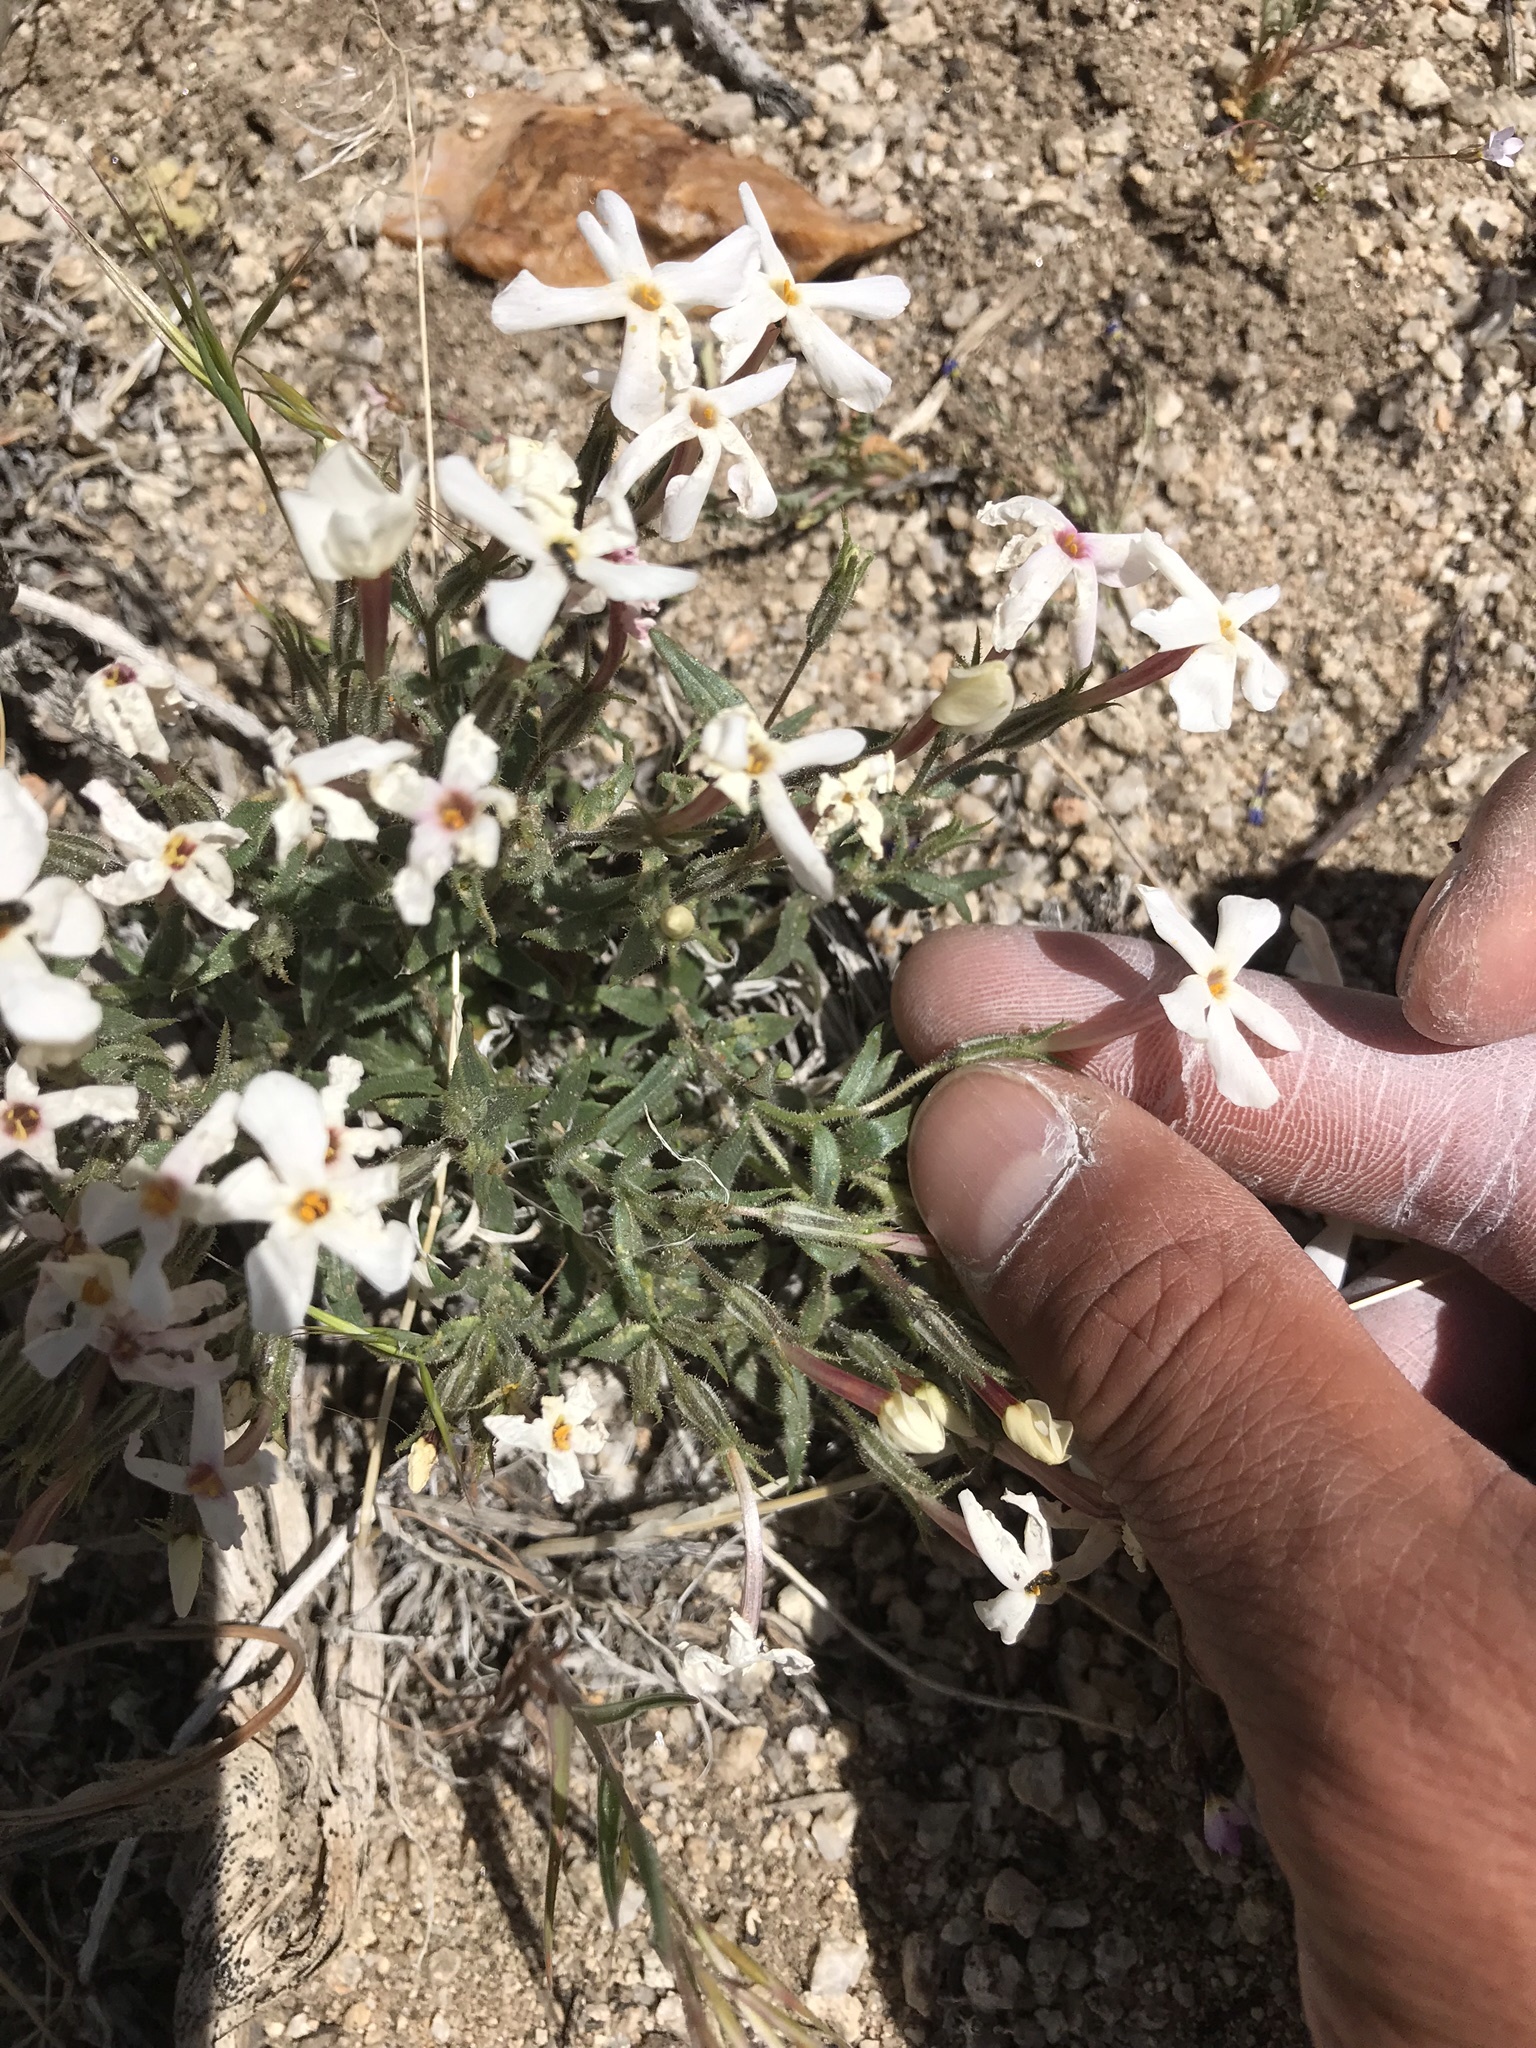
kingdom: Plantae
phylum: Tracheophyta
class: Magnoliopsida
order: Ericales
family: Polemoniaceae
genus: Phlox
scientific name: Phlox longifolia
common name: Longleaf phlox
